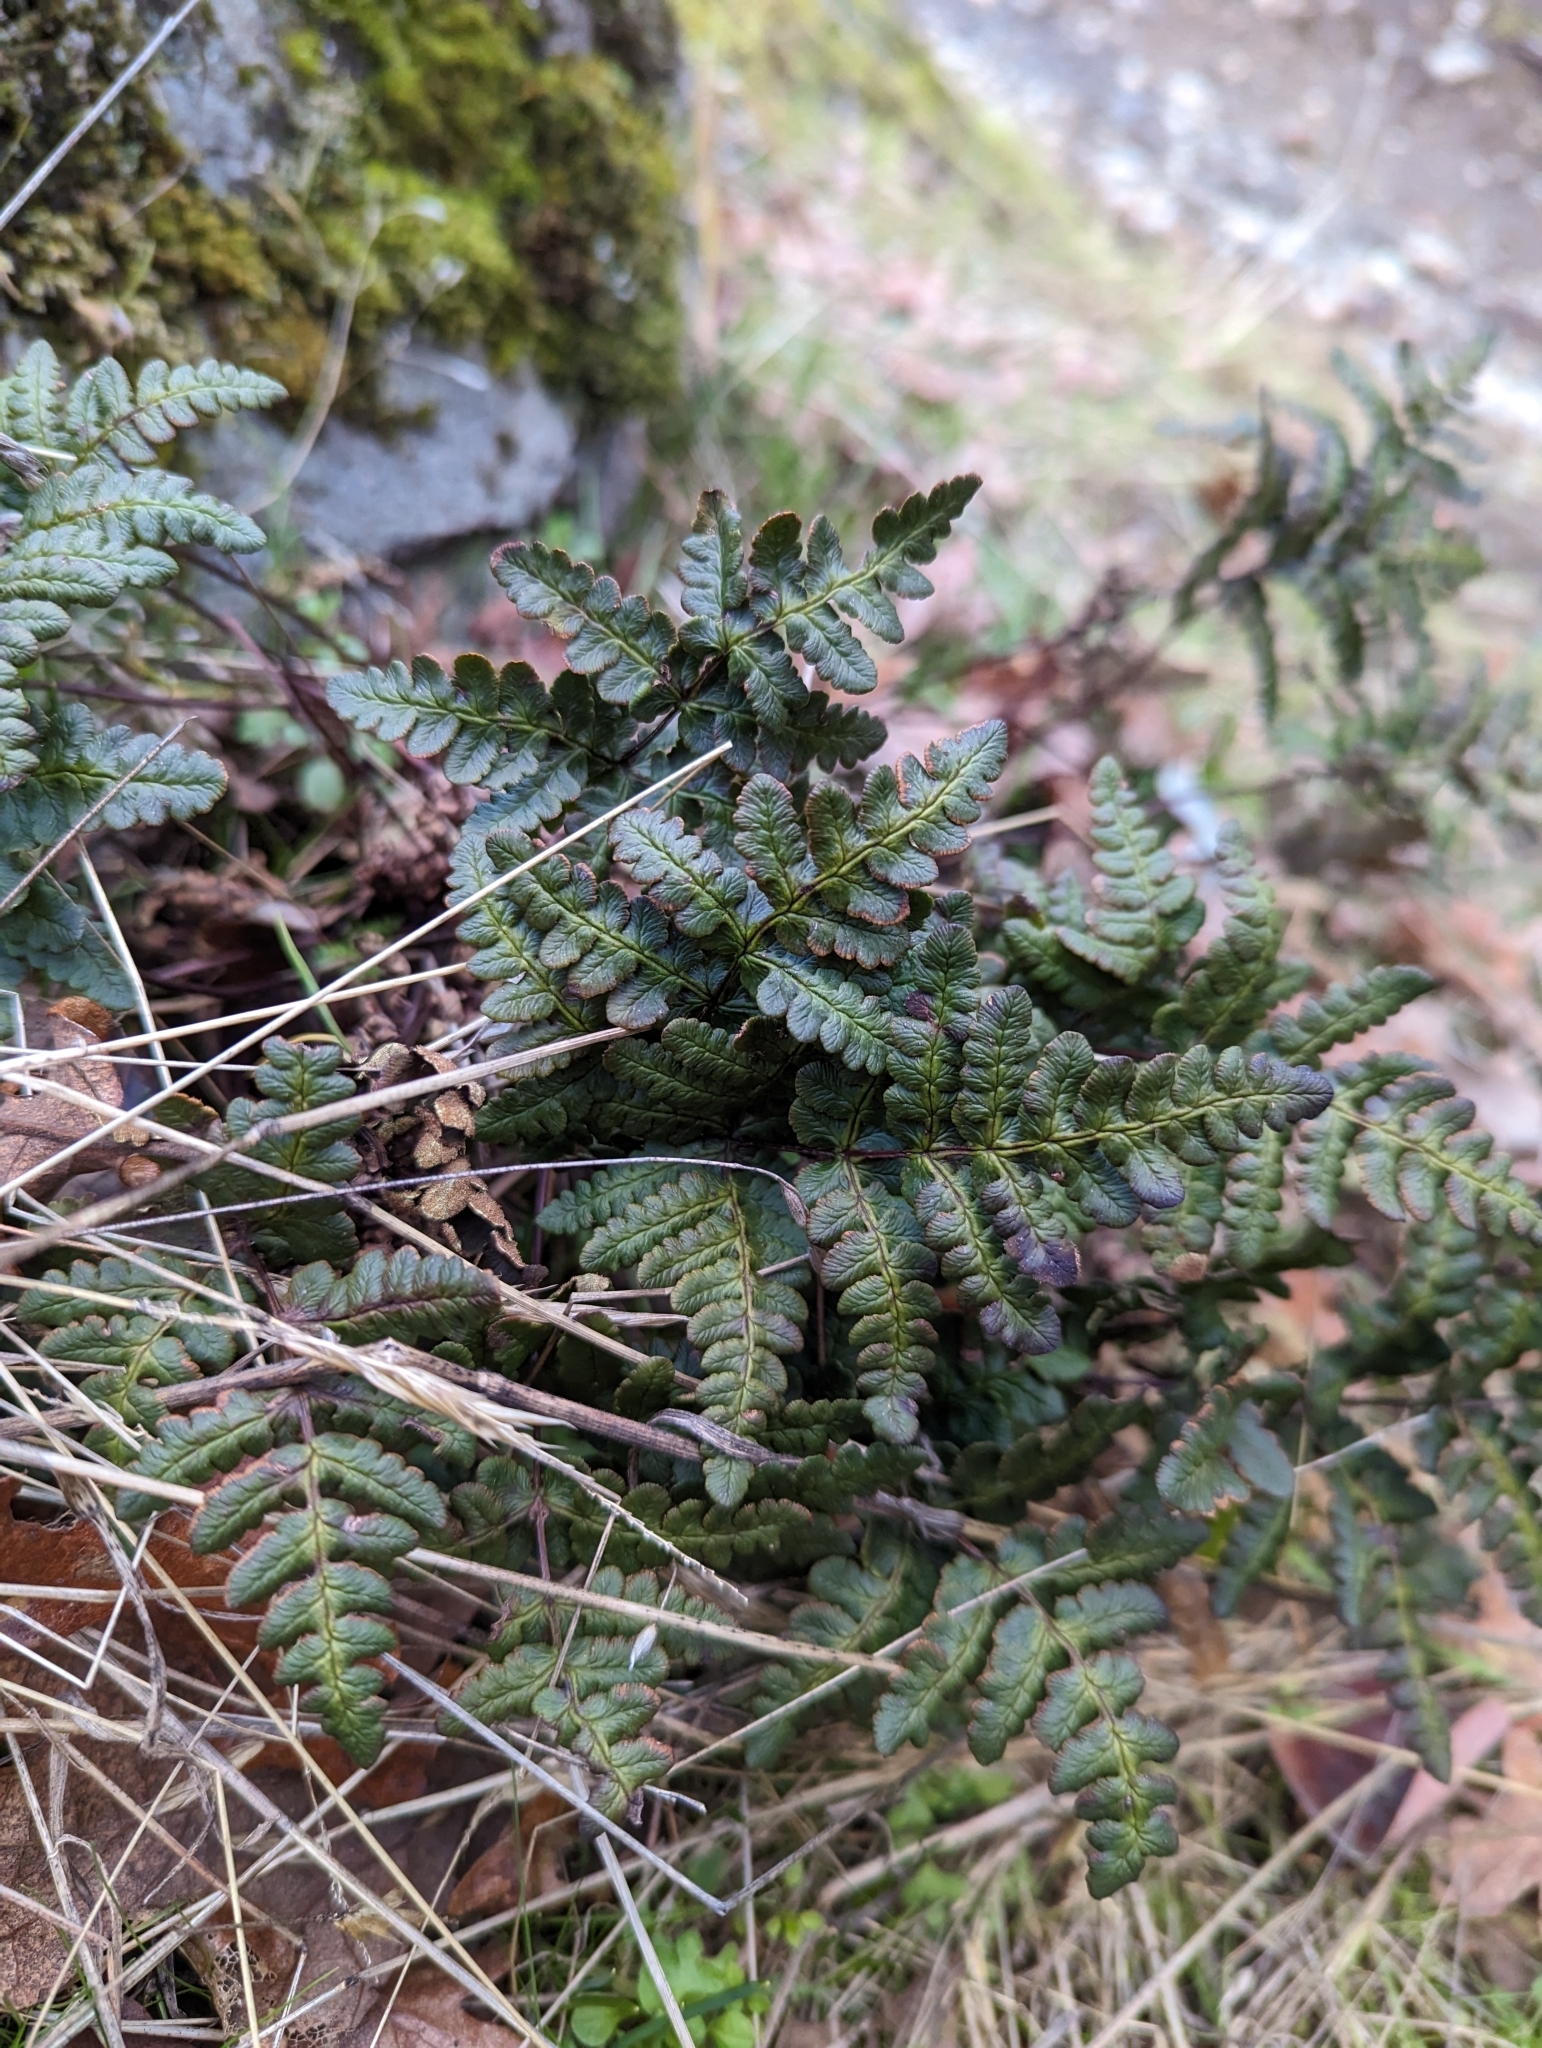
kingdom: Plantae
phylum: Tracheophyta
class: Polypodiopsida
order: Polypodiales
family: Pteridaceae
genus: Pentagramma
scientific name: Pentagramma triangularis
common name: Gold fern
